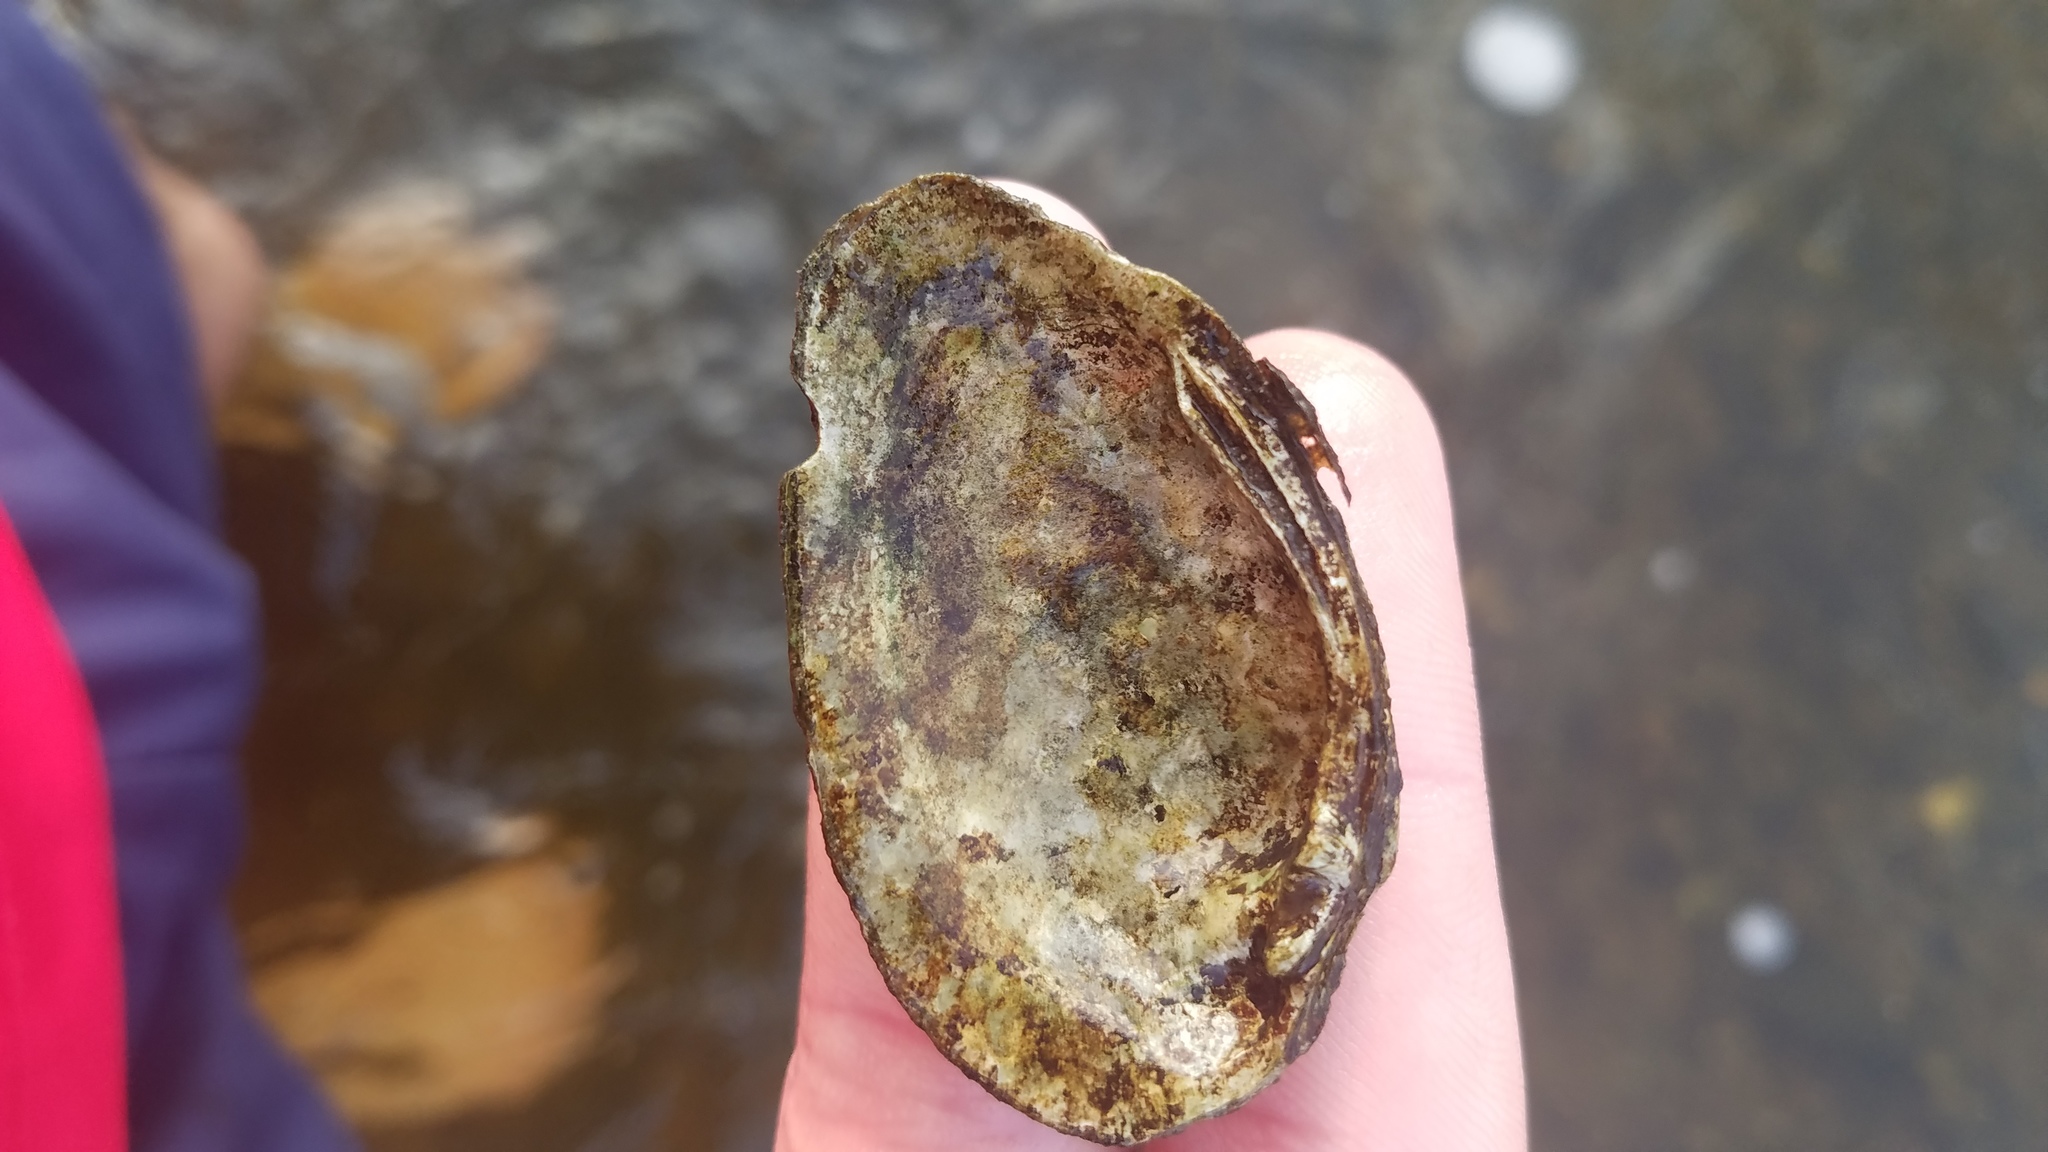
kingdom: Animalia
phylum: Mollusca
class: Bivalvia
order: Unionida
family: Unionidae
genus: Venustaconcha
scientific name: Venustaconcha ellipsiformis
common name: Ellipse
